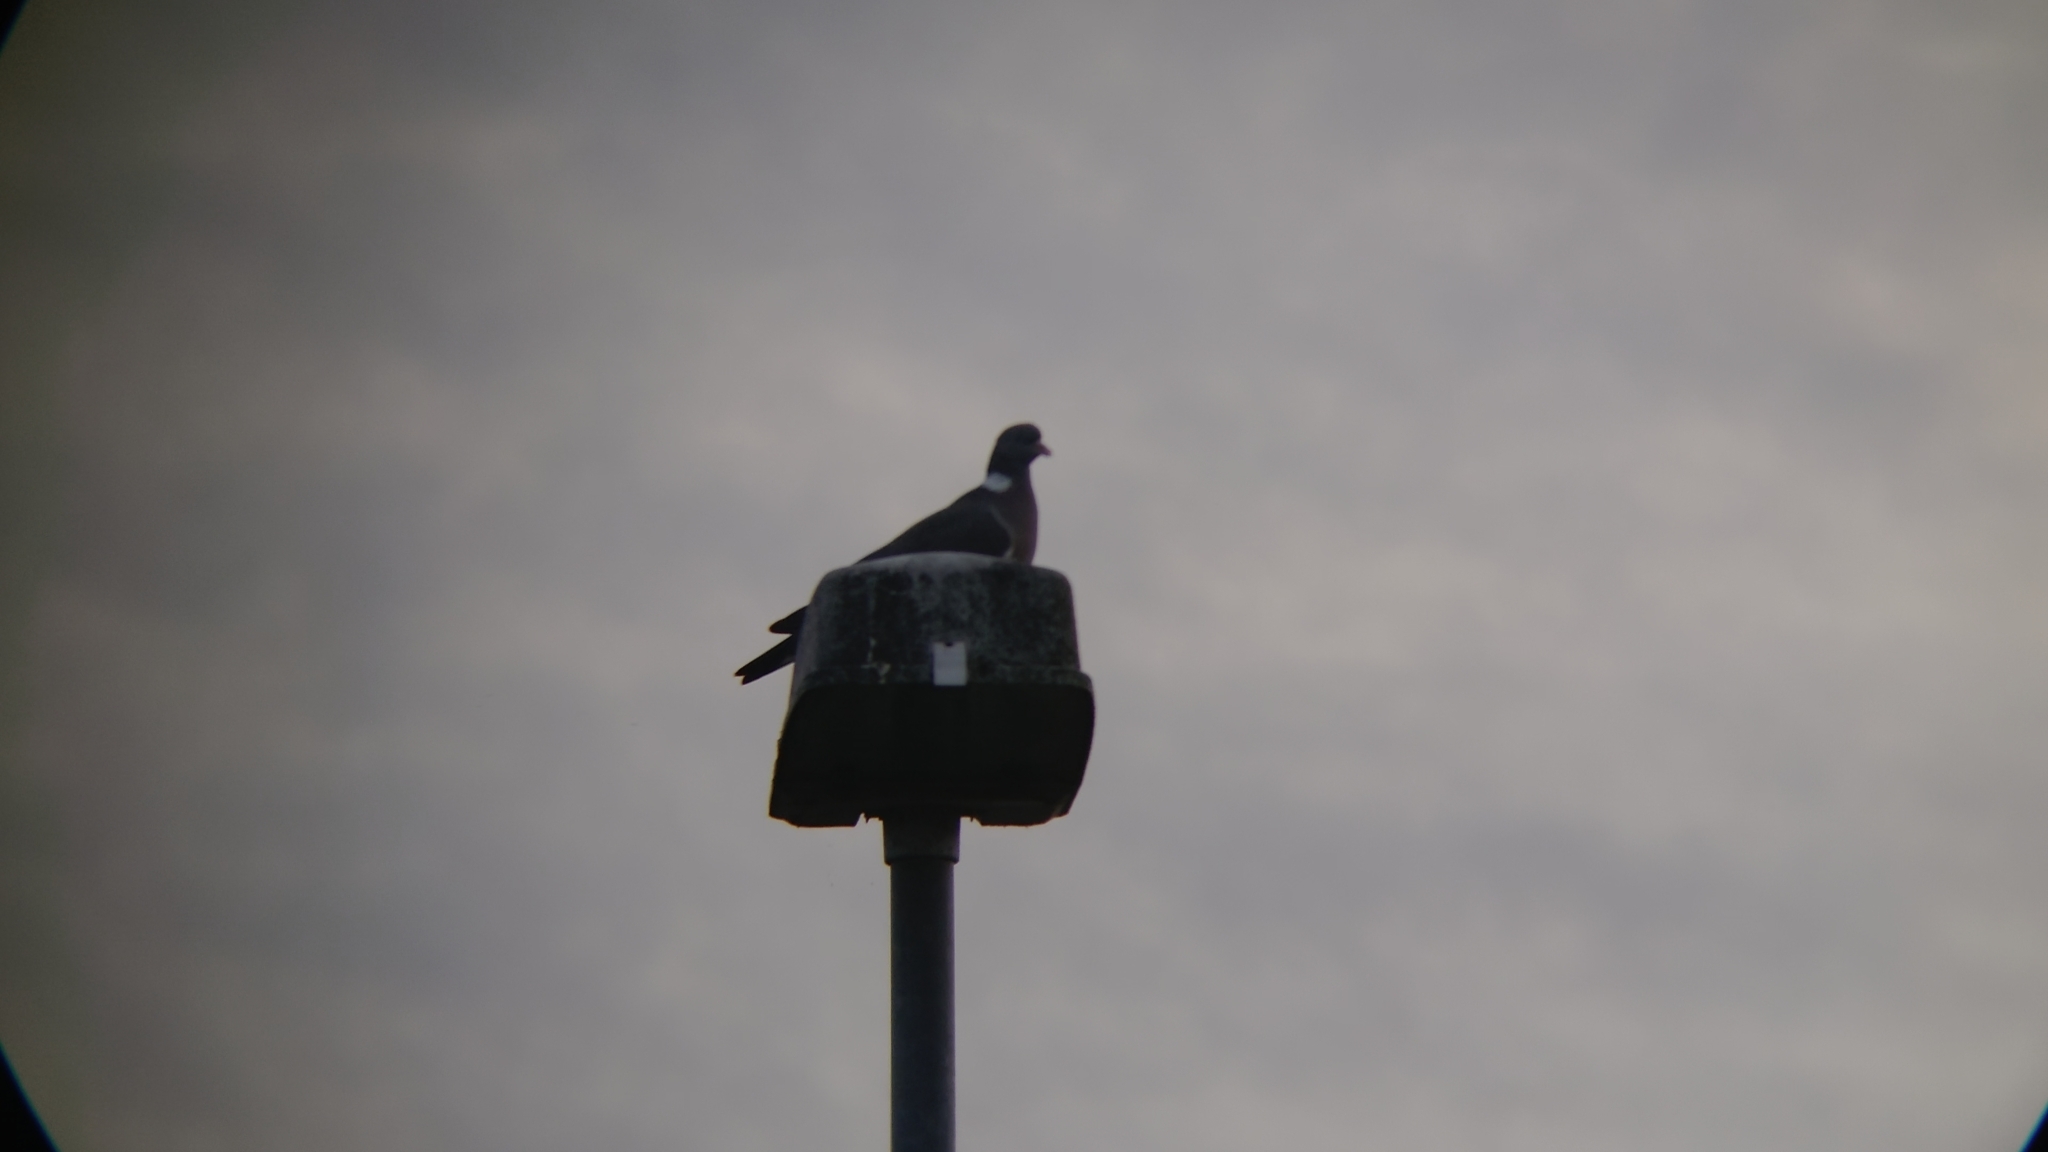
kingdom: Animalia
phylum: Chordata
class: Aves
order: Columbiformes
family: Columbidae
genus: Columba
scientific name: Columba palumbus
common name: Common wood pigeon
